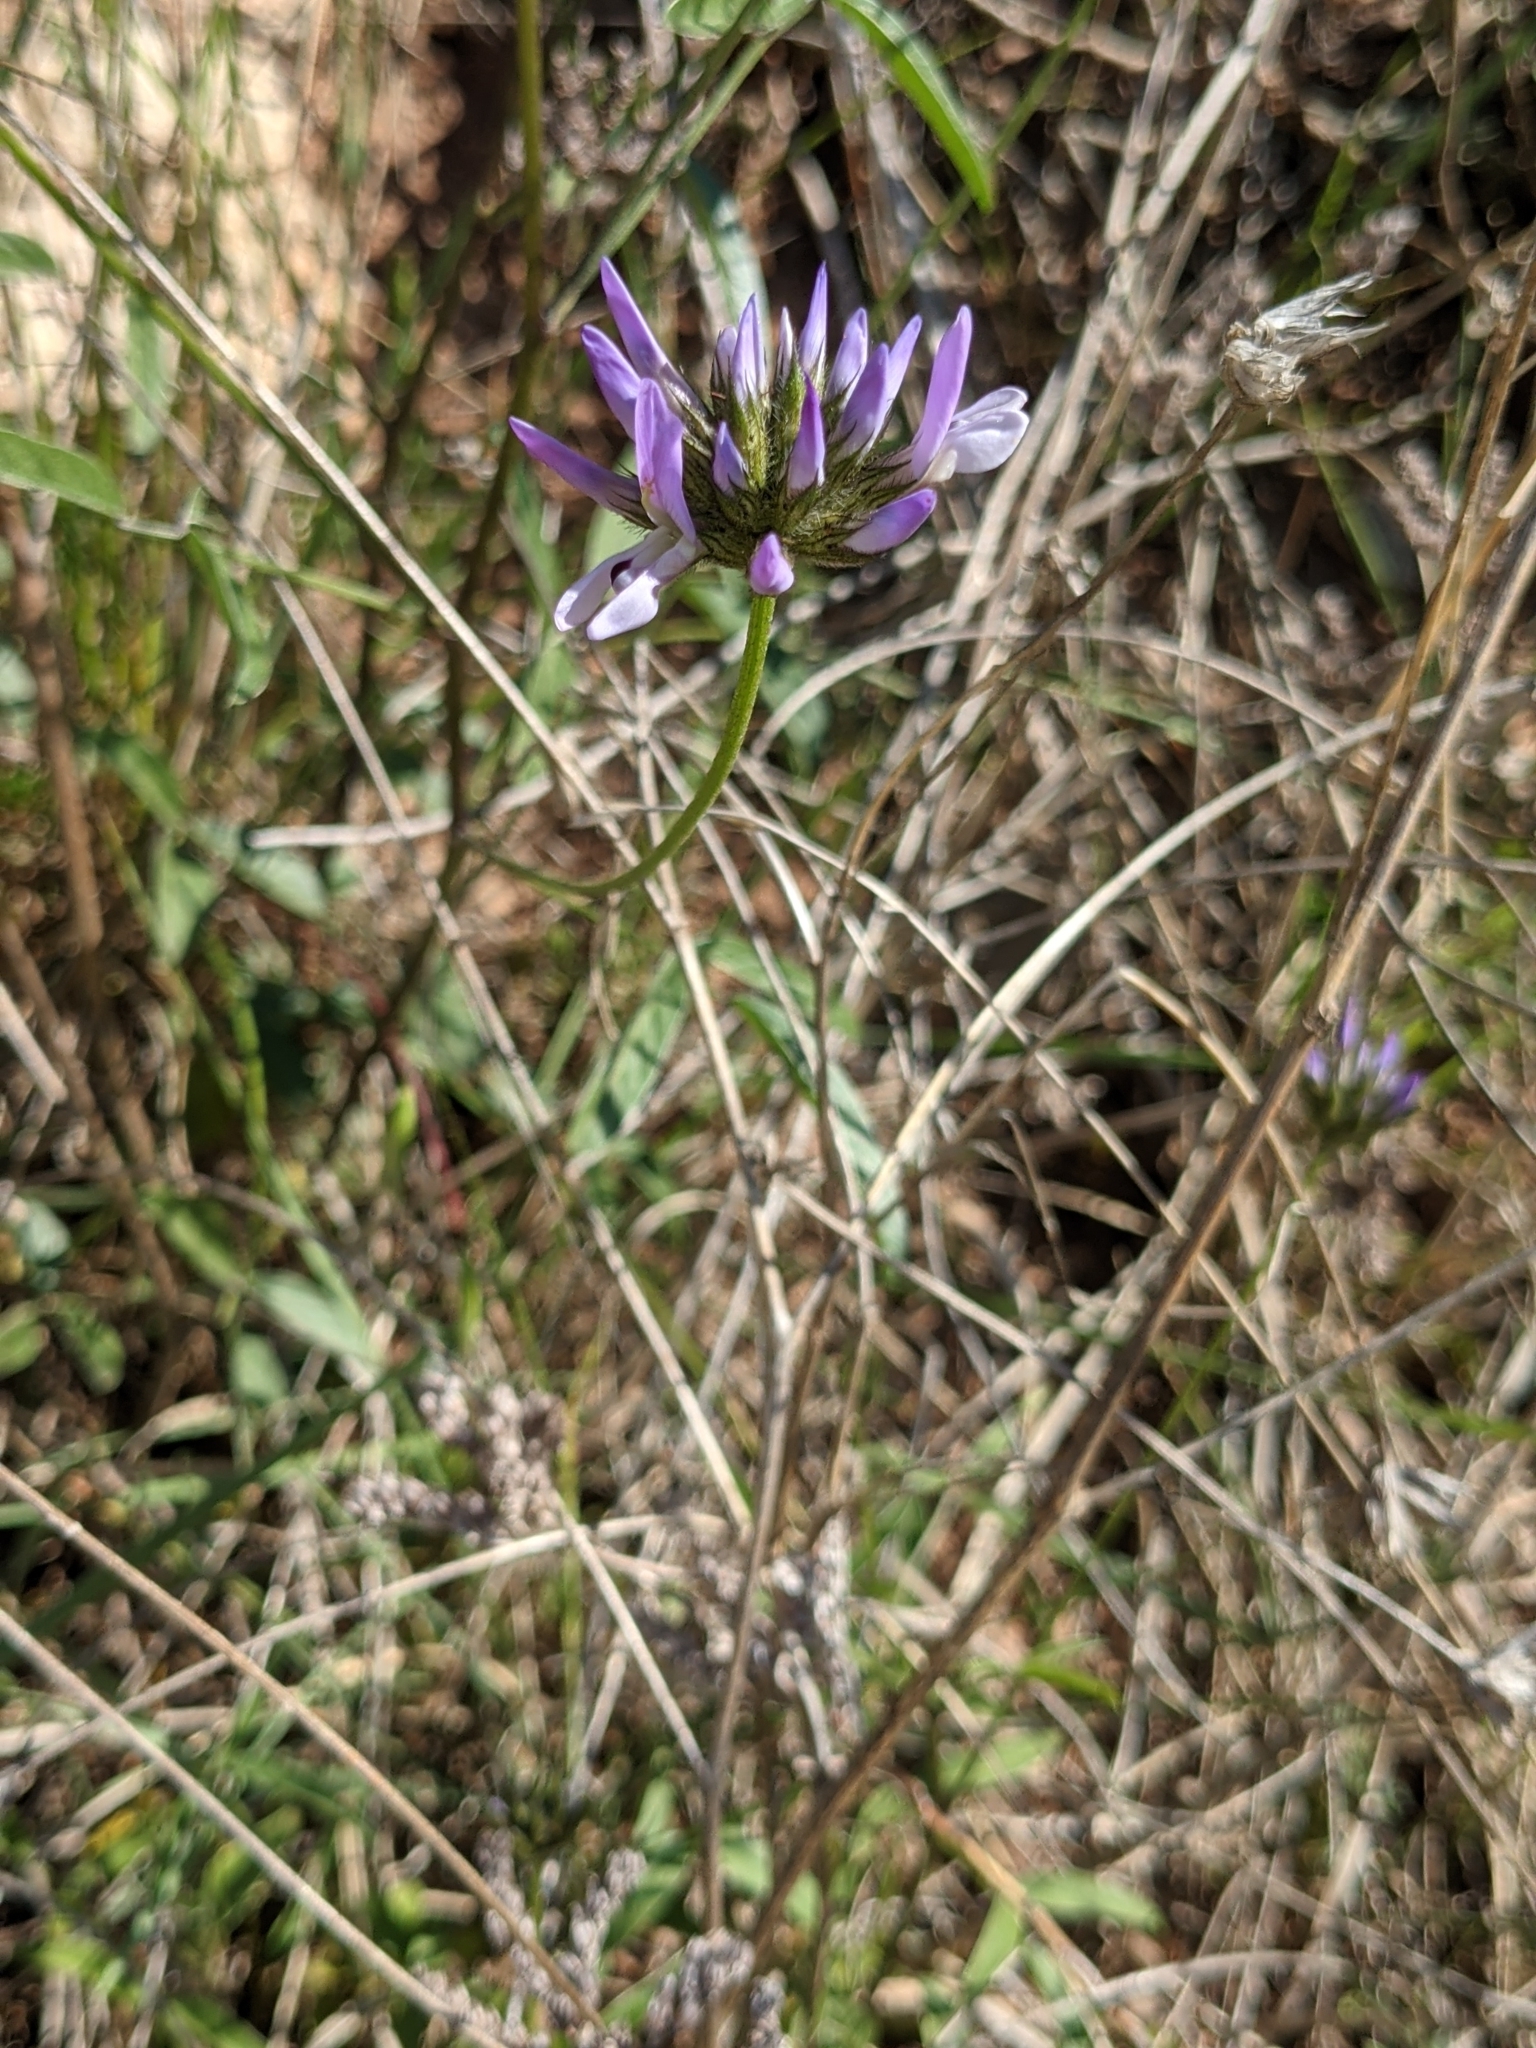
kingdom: Plantae
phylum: Tracheophyta
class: Magnoliopsida
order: Fabales
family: Fabaceae
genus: Bituminaria
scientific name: Bituminaria bituminosa
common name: Arabian pea
